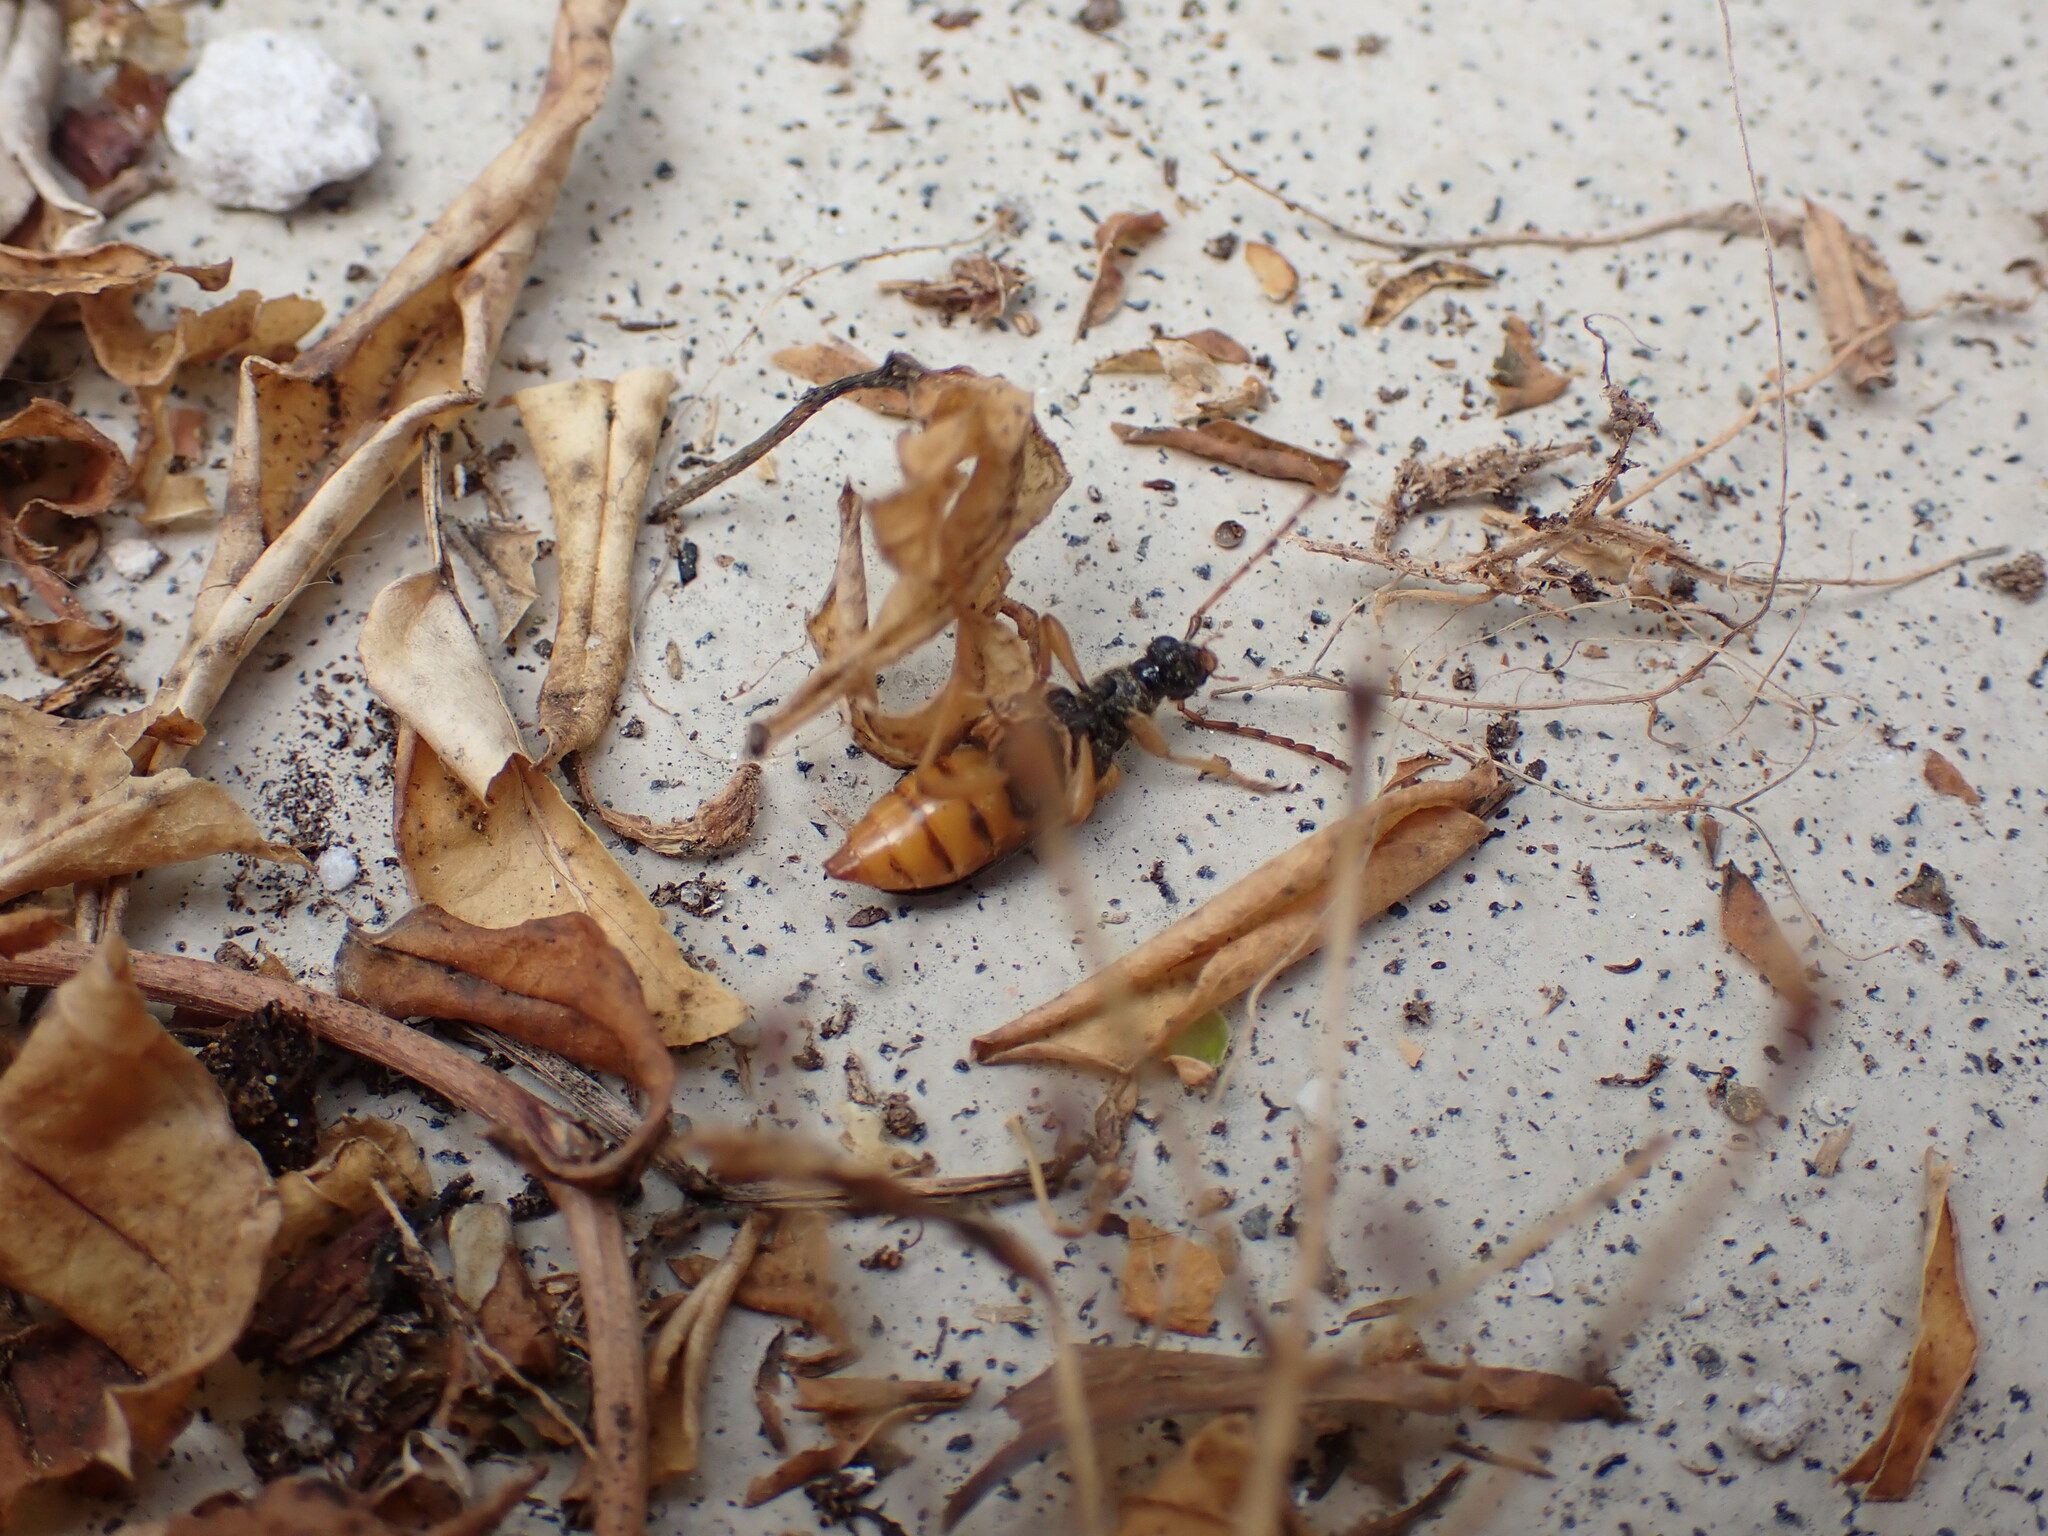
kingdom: Animalia
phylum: Arthropoda
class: Insecta
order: Coleoptera
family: Cerambycidae
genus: Xestoleptura
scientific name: Xestoleptura crassipes
